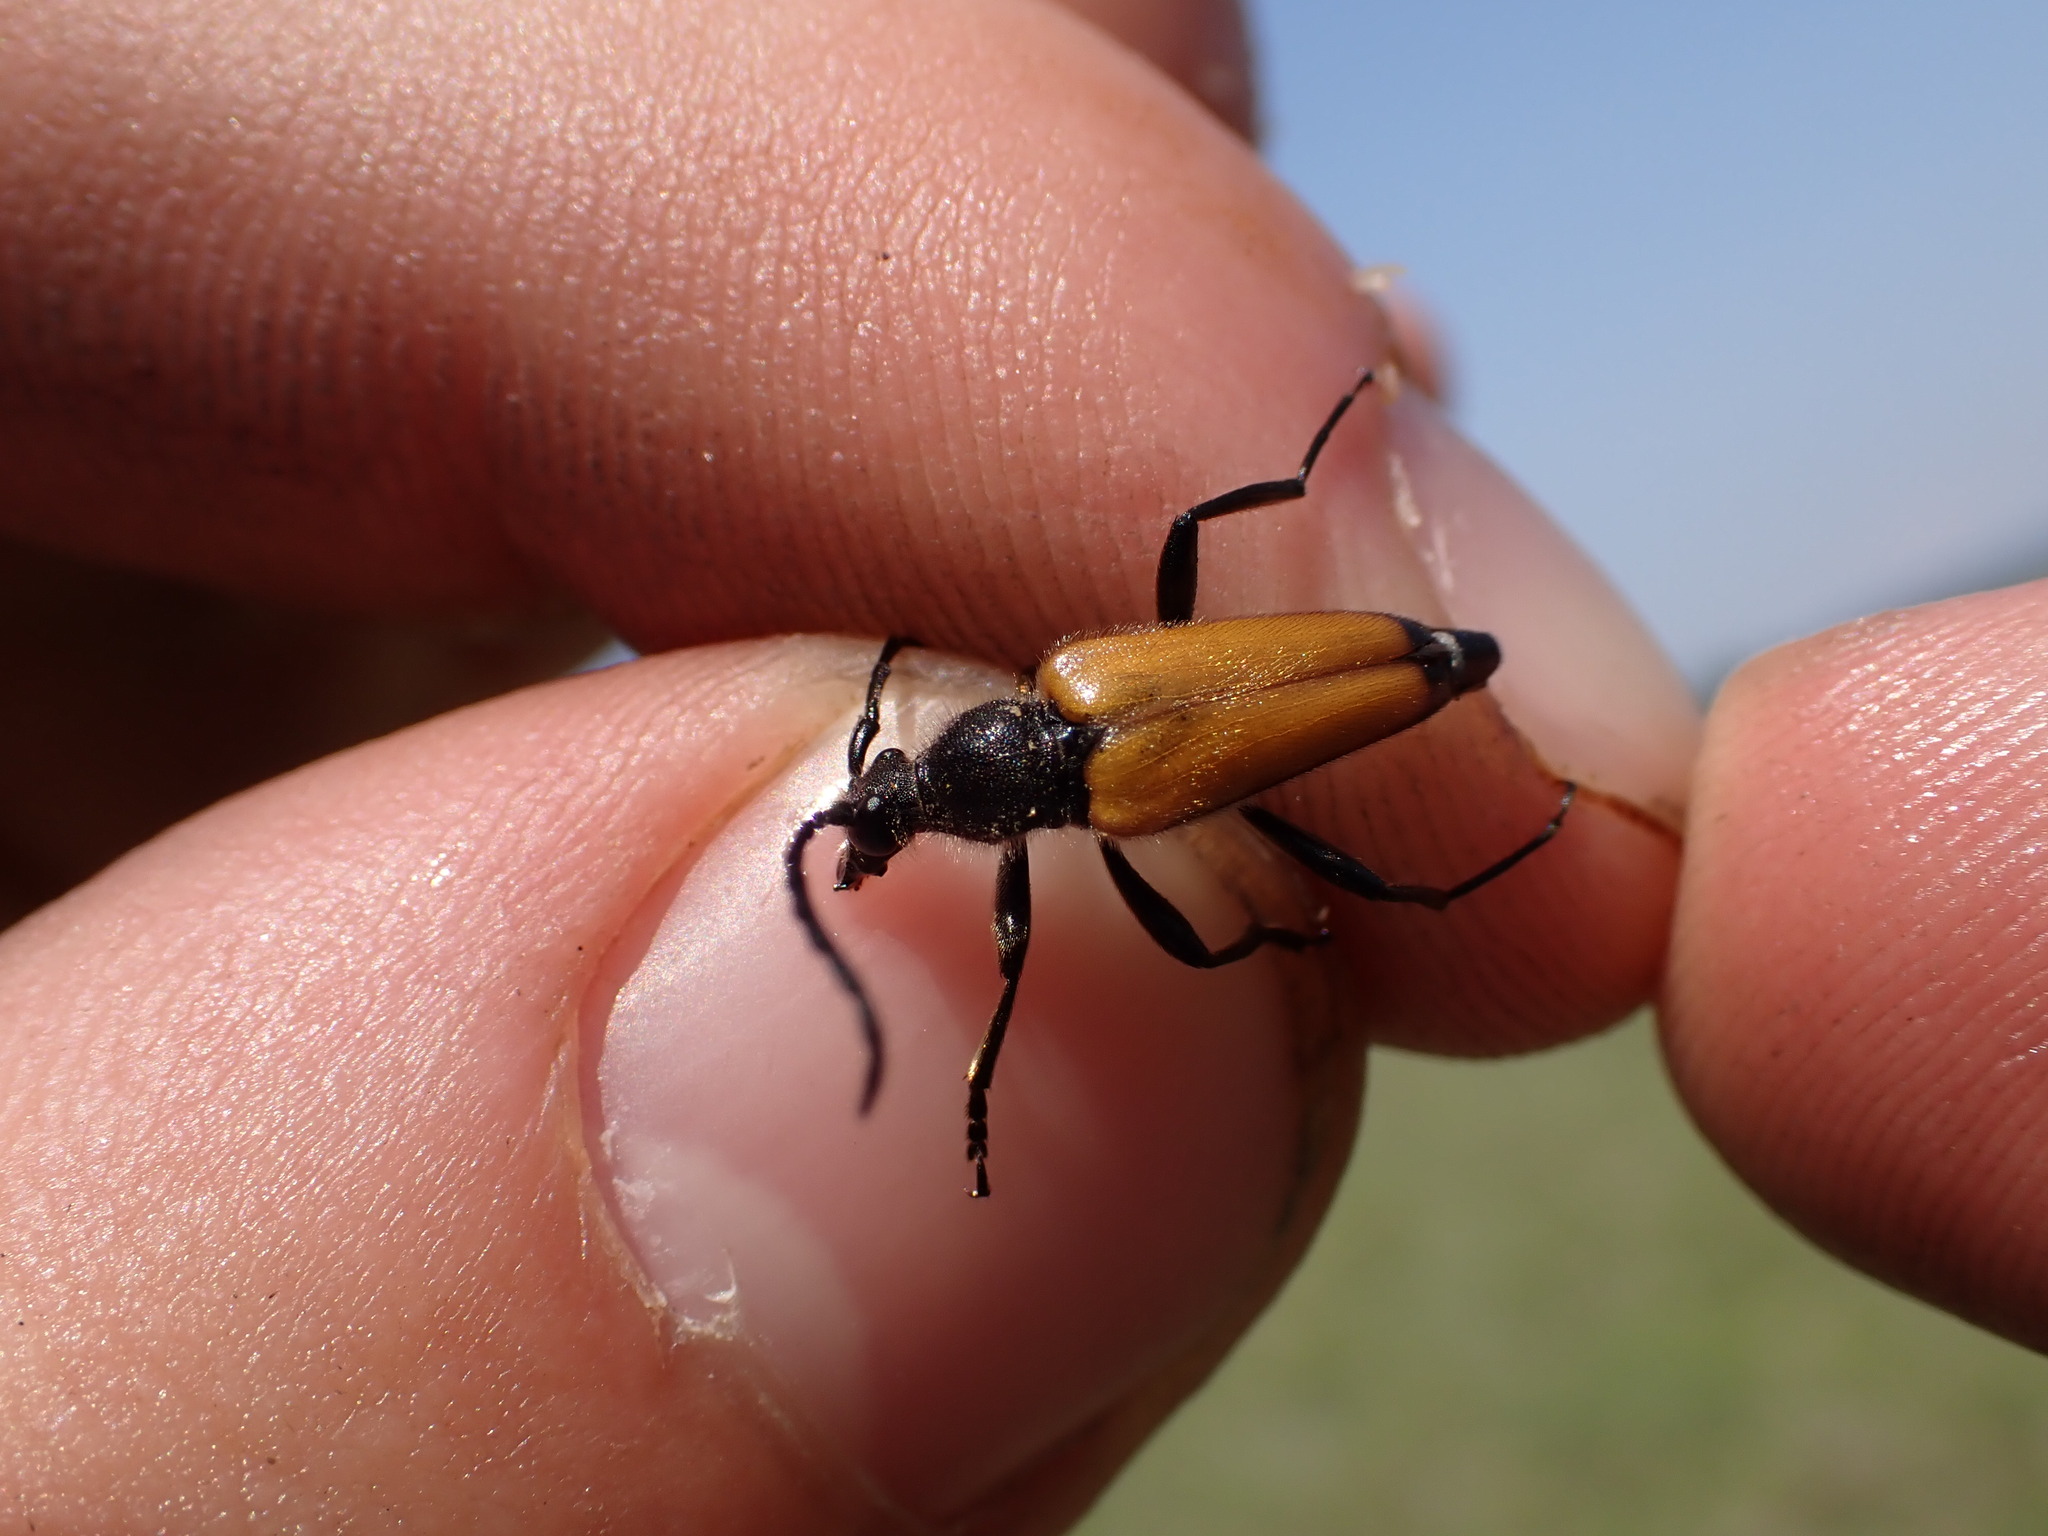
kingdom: Animalia
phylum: Arthropoda
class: Insecta
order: Coleoptera
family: Cerambycidae
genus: Paracorymbia
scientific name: Paracorymbia fulva
